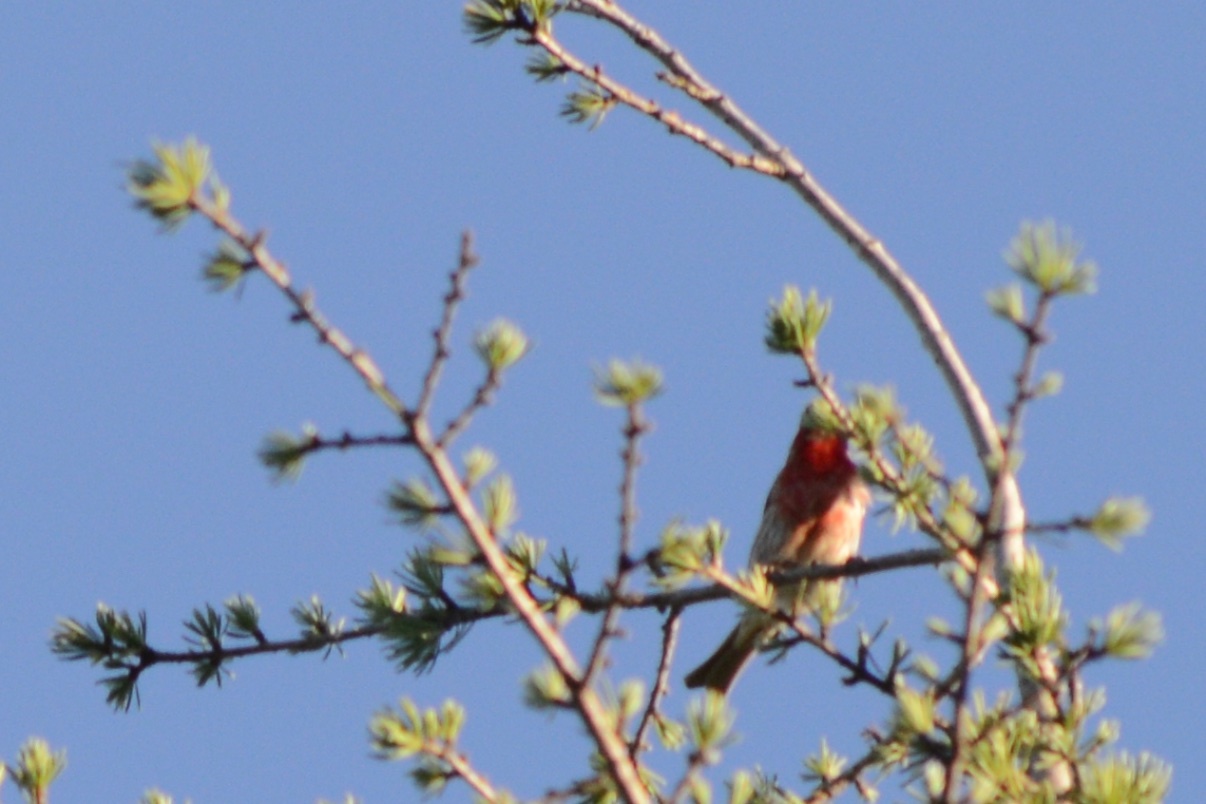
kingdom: Animalia
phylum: Chordata
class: Aves
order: Passeriformes
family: Fringillidae
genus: Haemorhous
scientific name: Haemorhous mexicanus
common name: House finch
